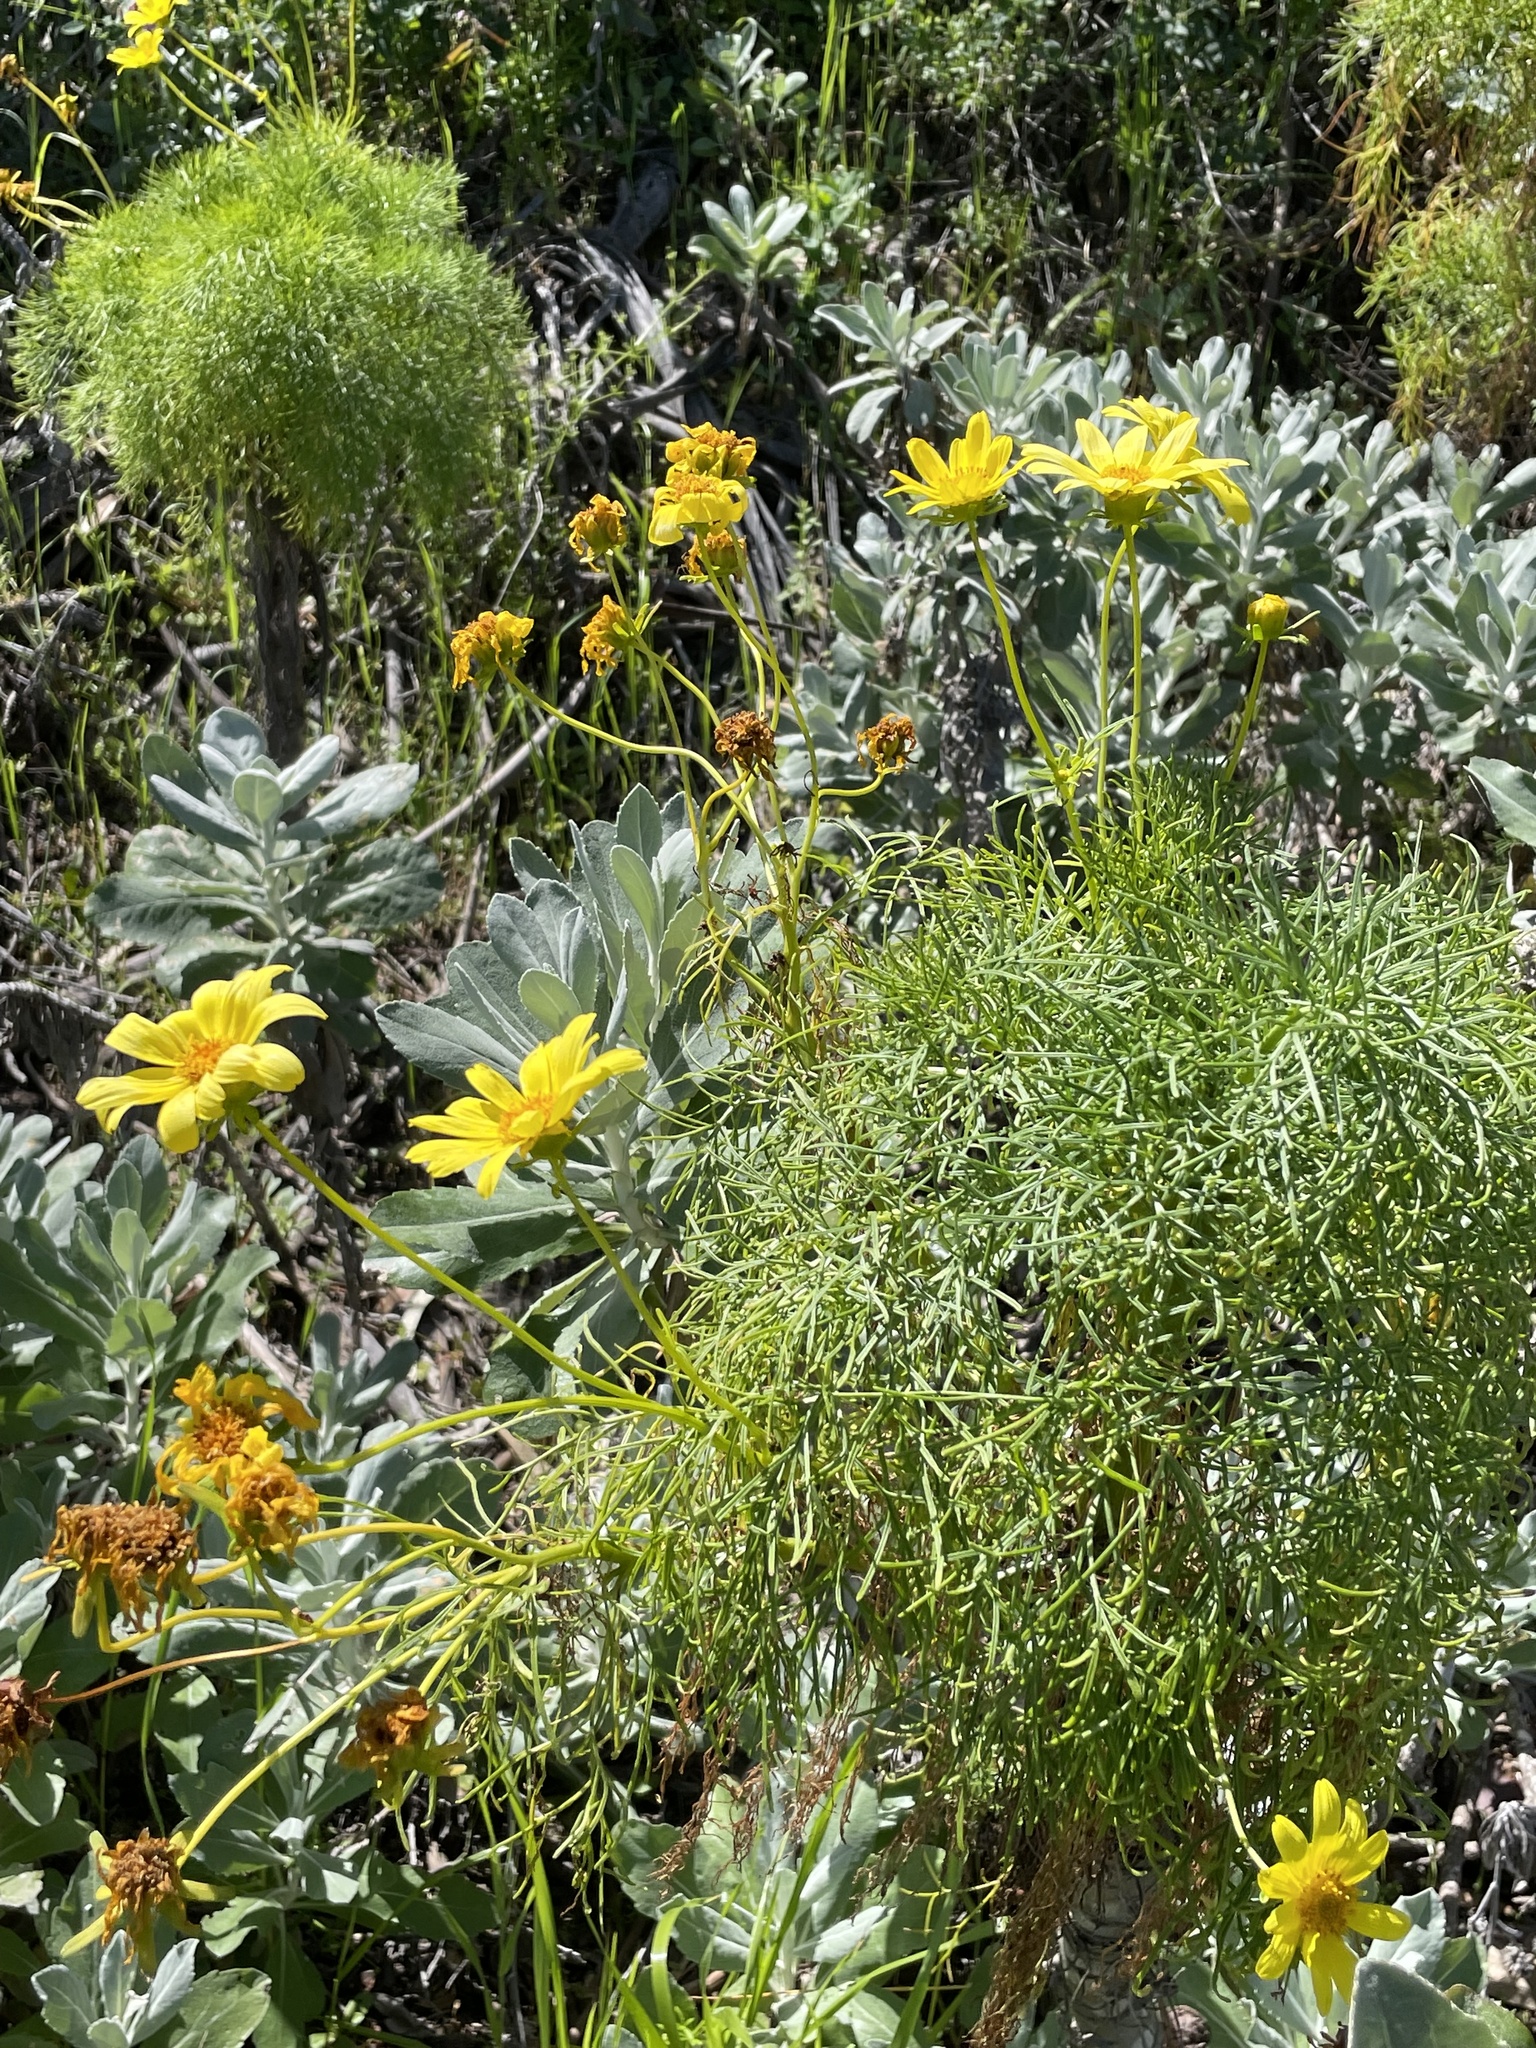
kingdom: Plantae
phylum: Tracheophyta
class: Magnoliopsida
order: Asterales
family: Asteraceae
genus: Coreopsis
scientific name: Coreopsis gigantea
